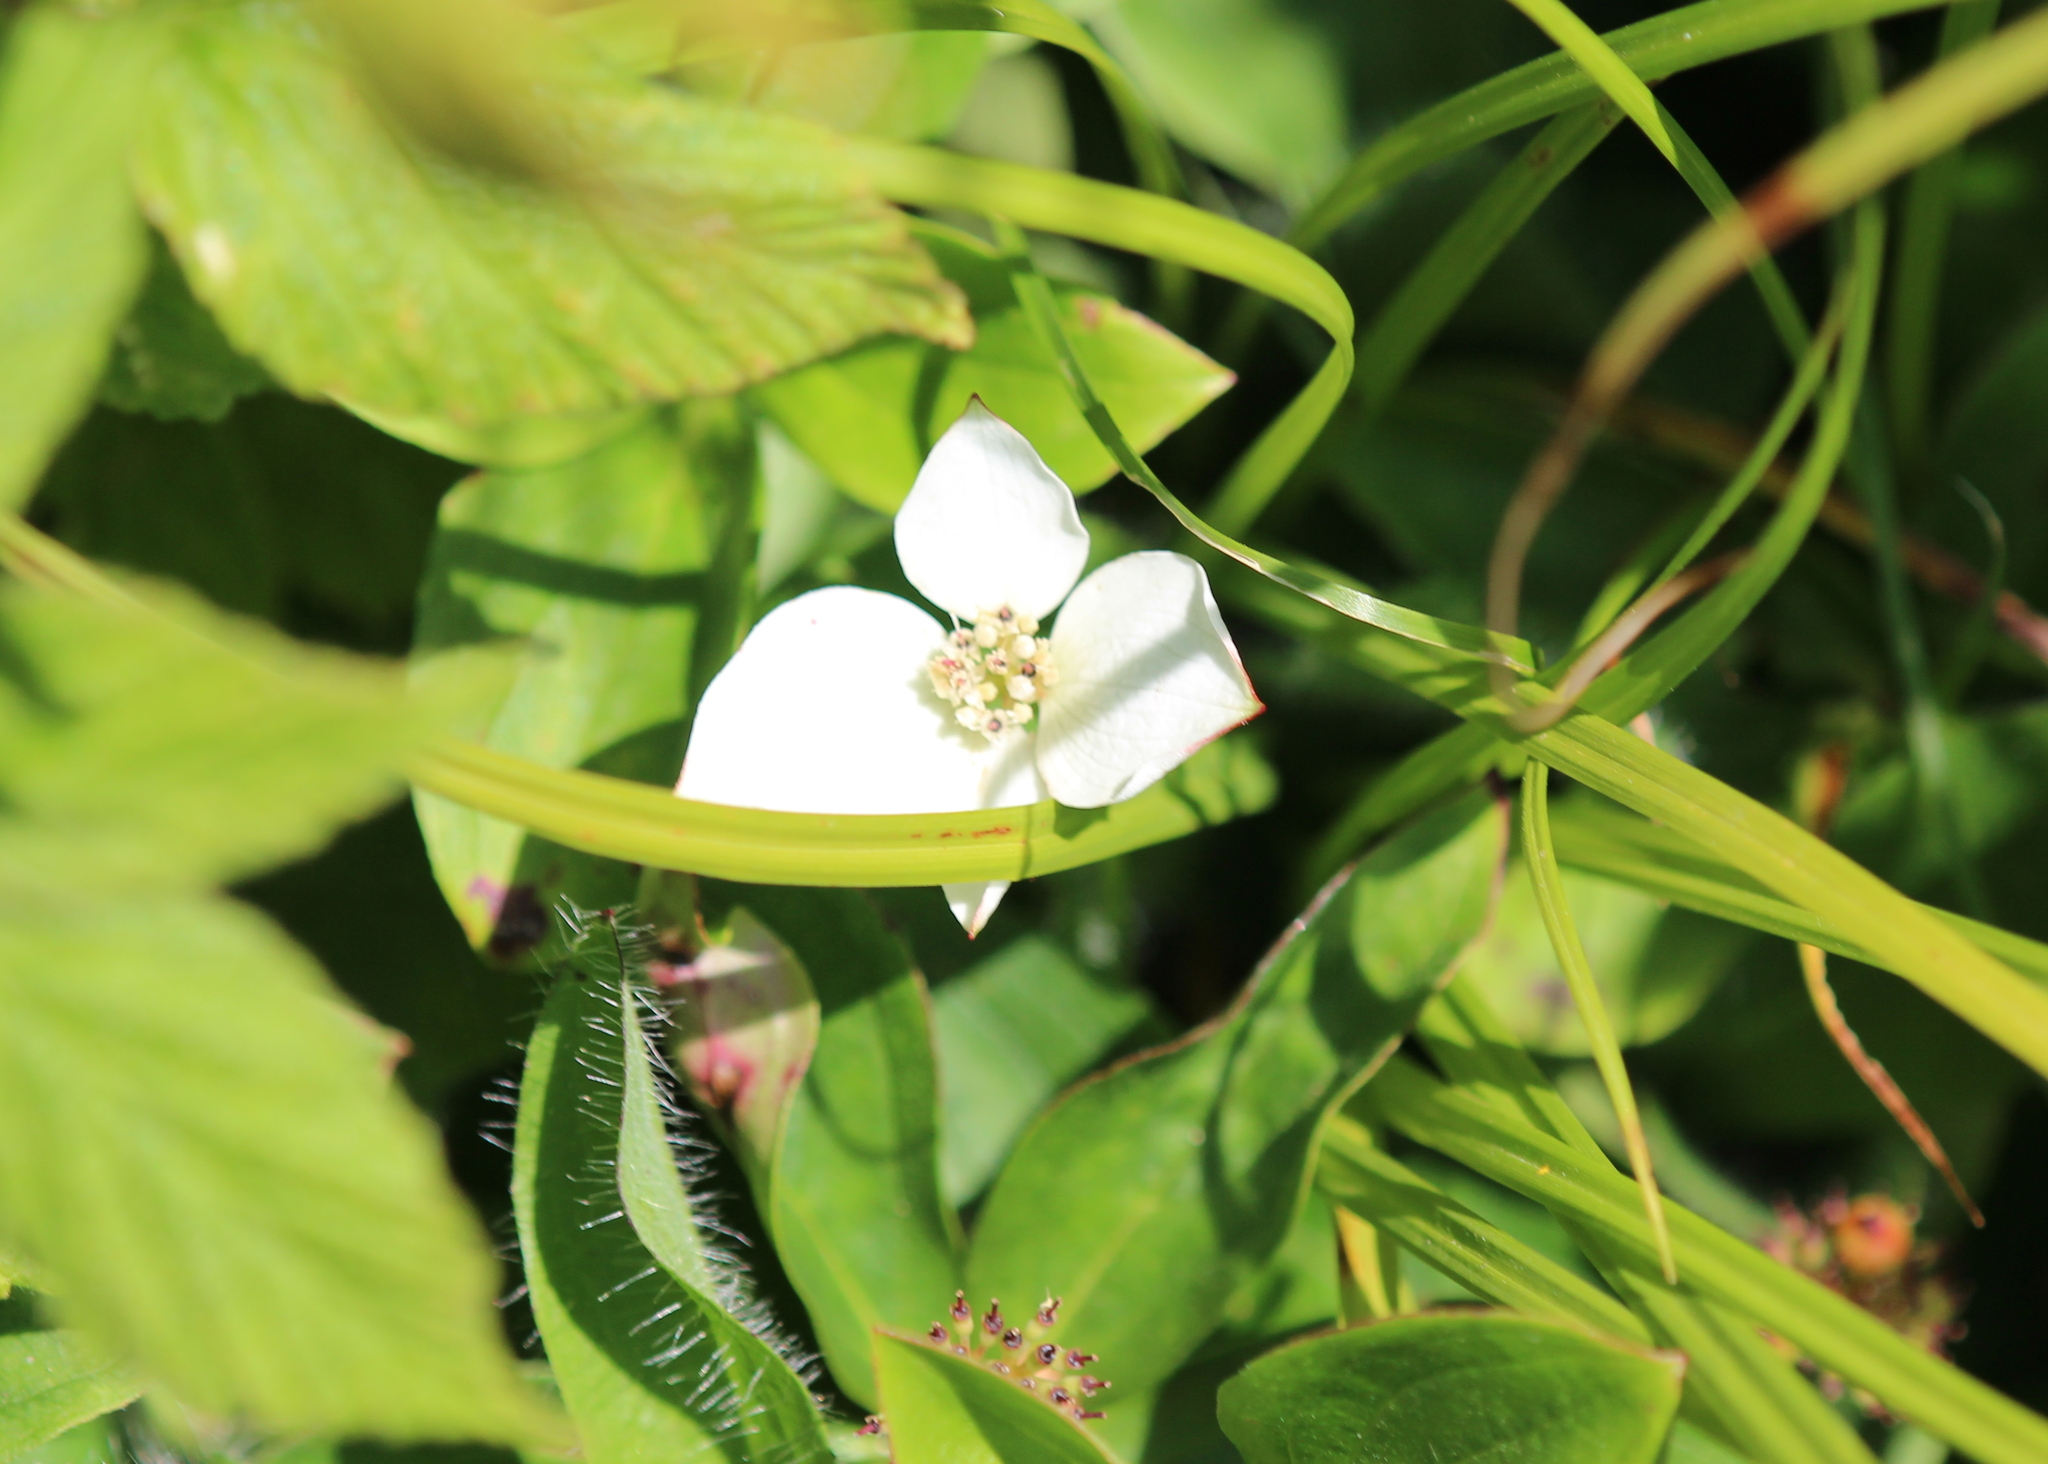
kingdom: Plantae
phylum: Tracheophyta
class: Magnoliopsida
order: Cornales
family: Cornaceae
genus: Cornus
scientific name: Cornus canadensis
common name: Creeping dogwood
